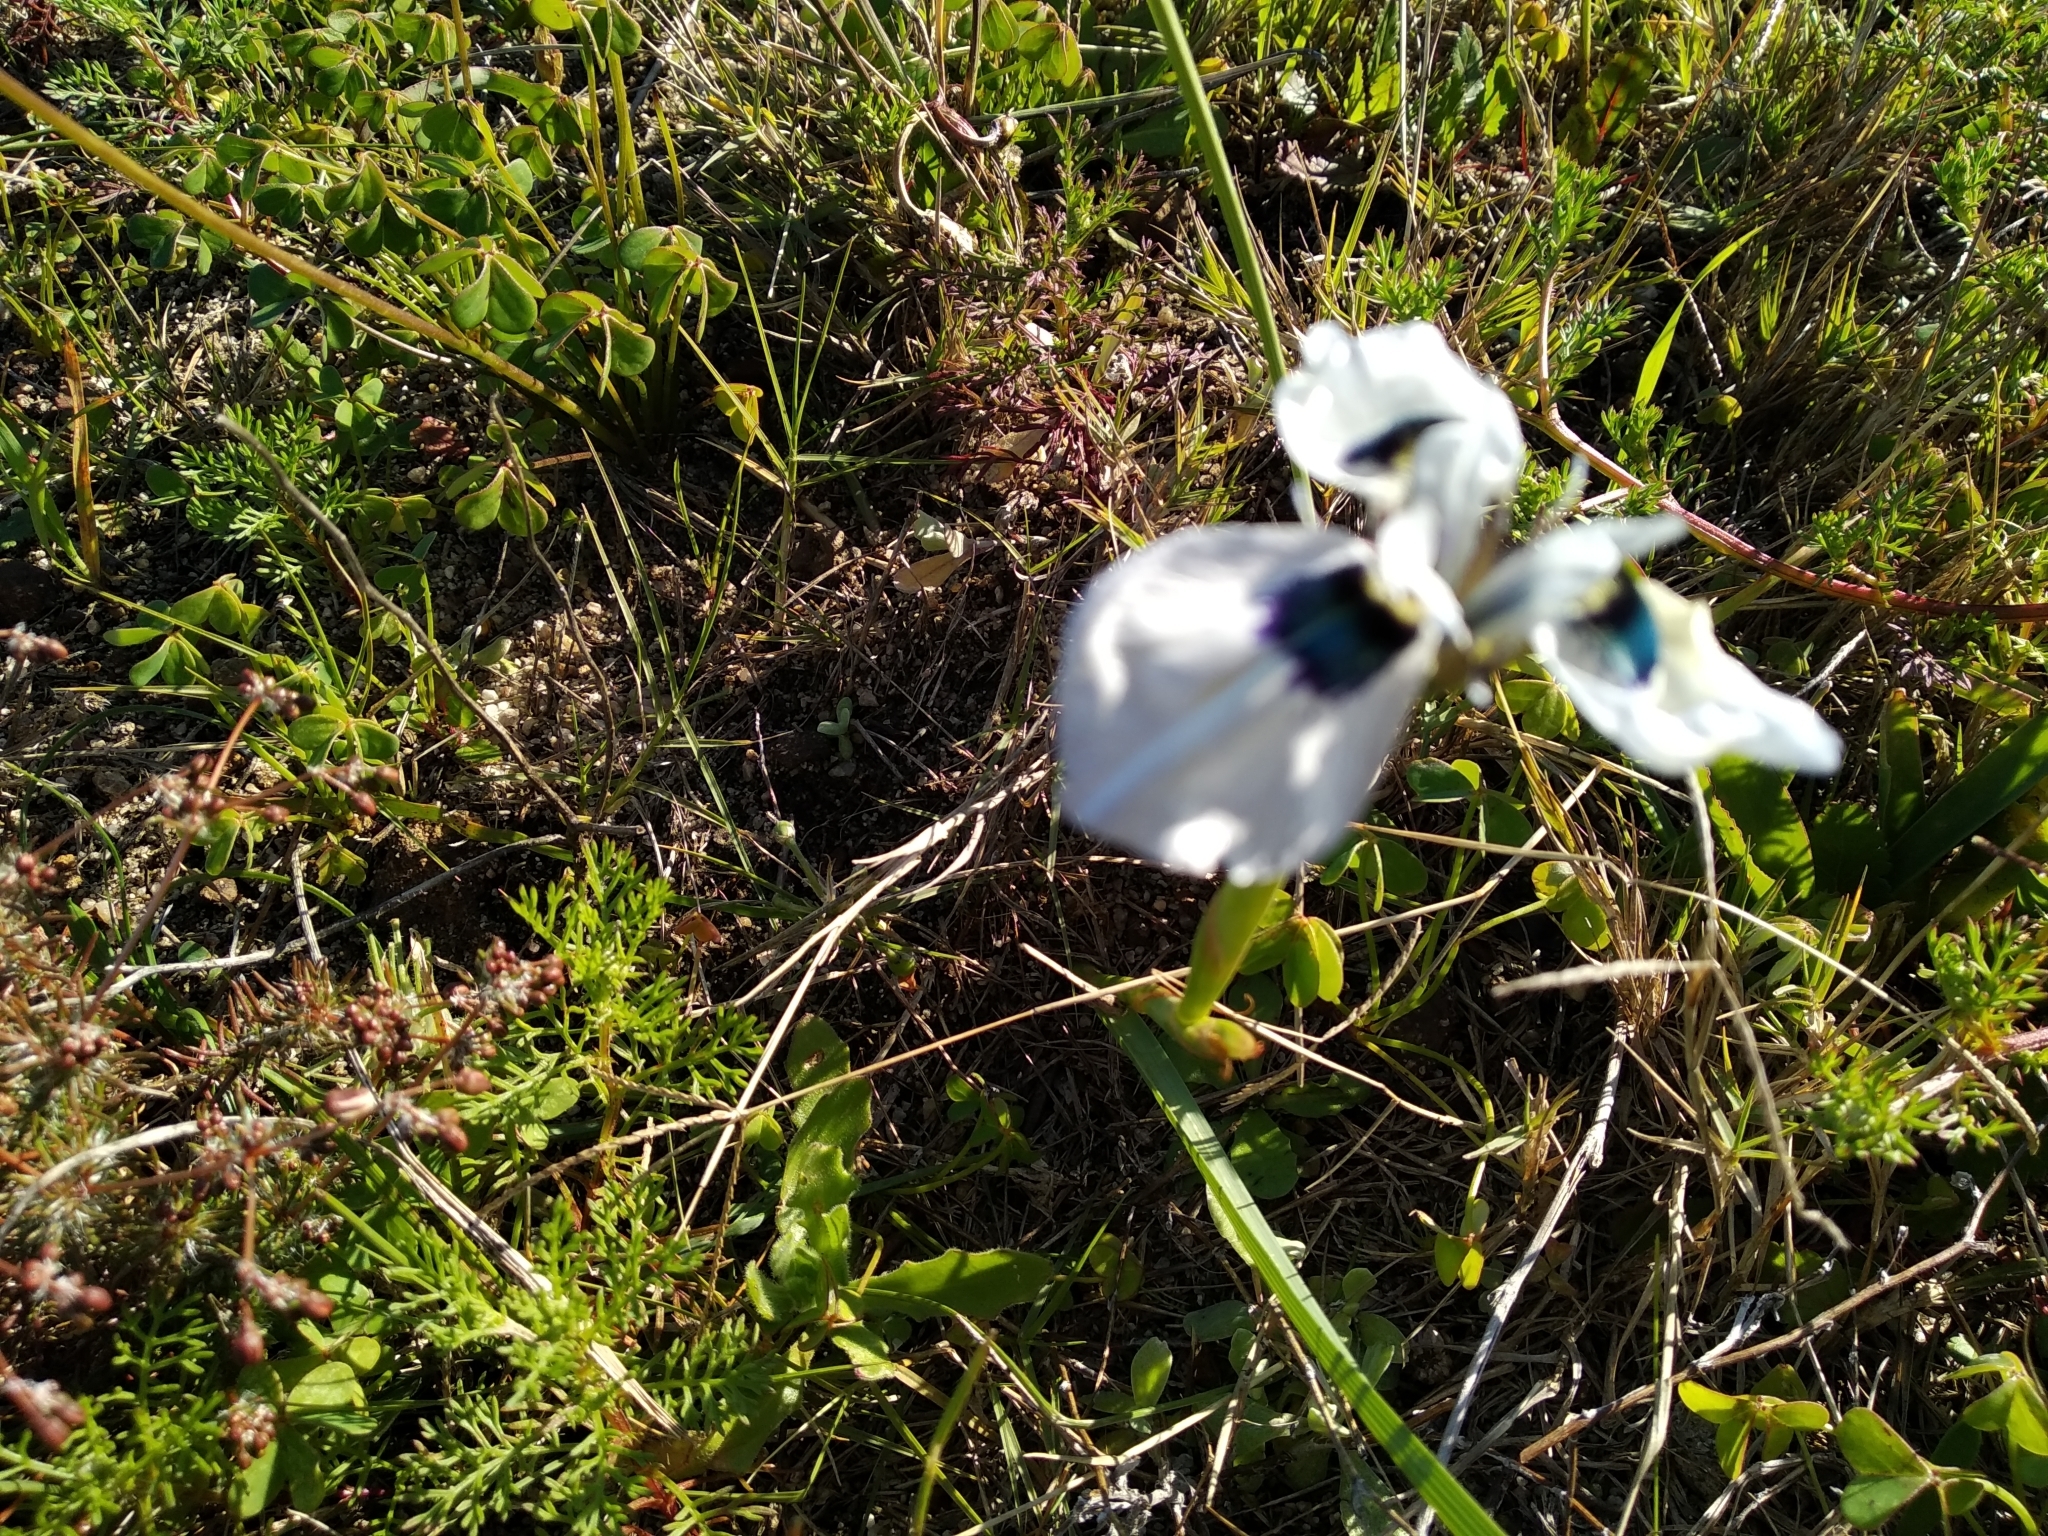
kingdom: Plantae
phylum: Tracheophyta
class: Liliopsida
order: Asparagales
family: Iridaceae
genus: Moraea
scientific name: Moraea aristata
